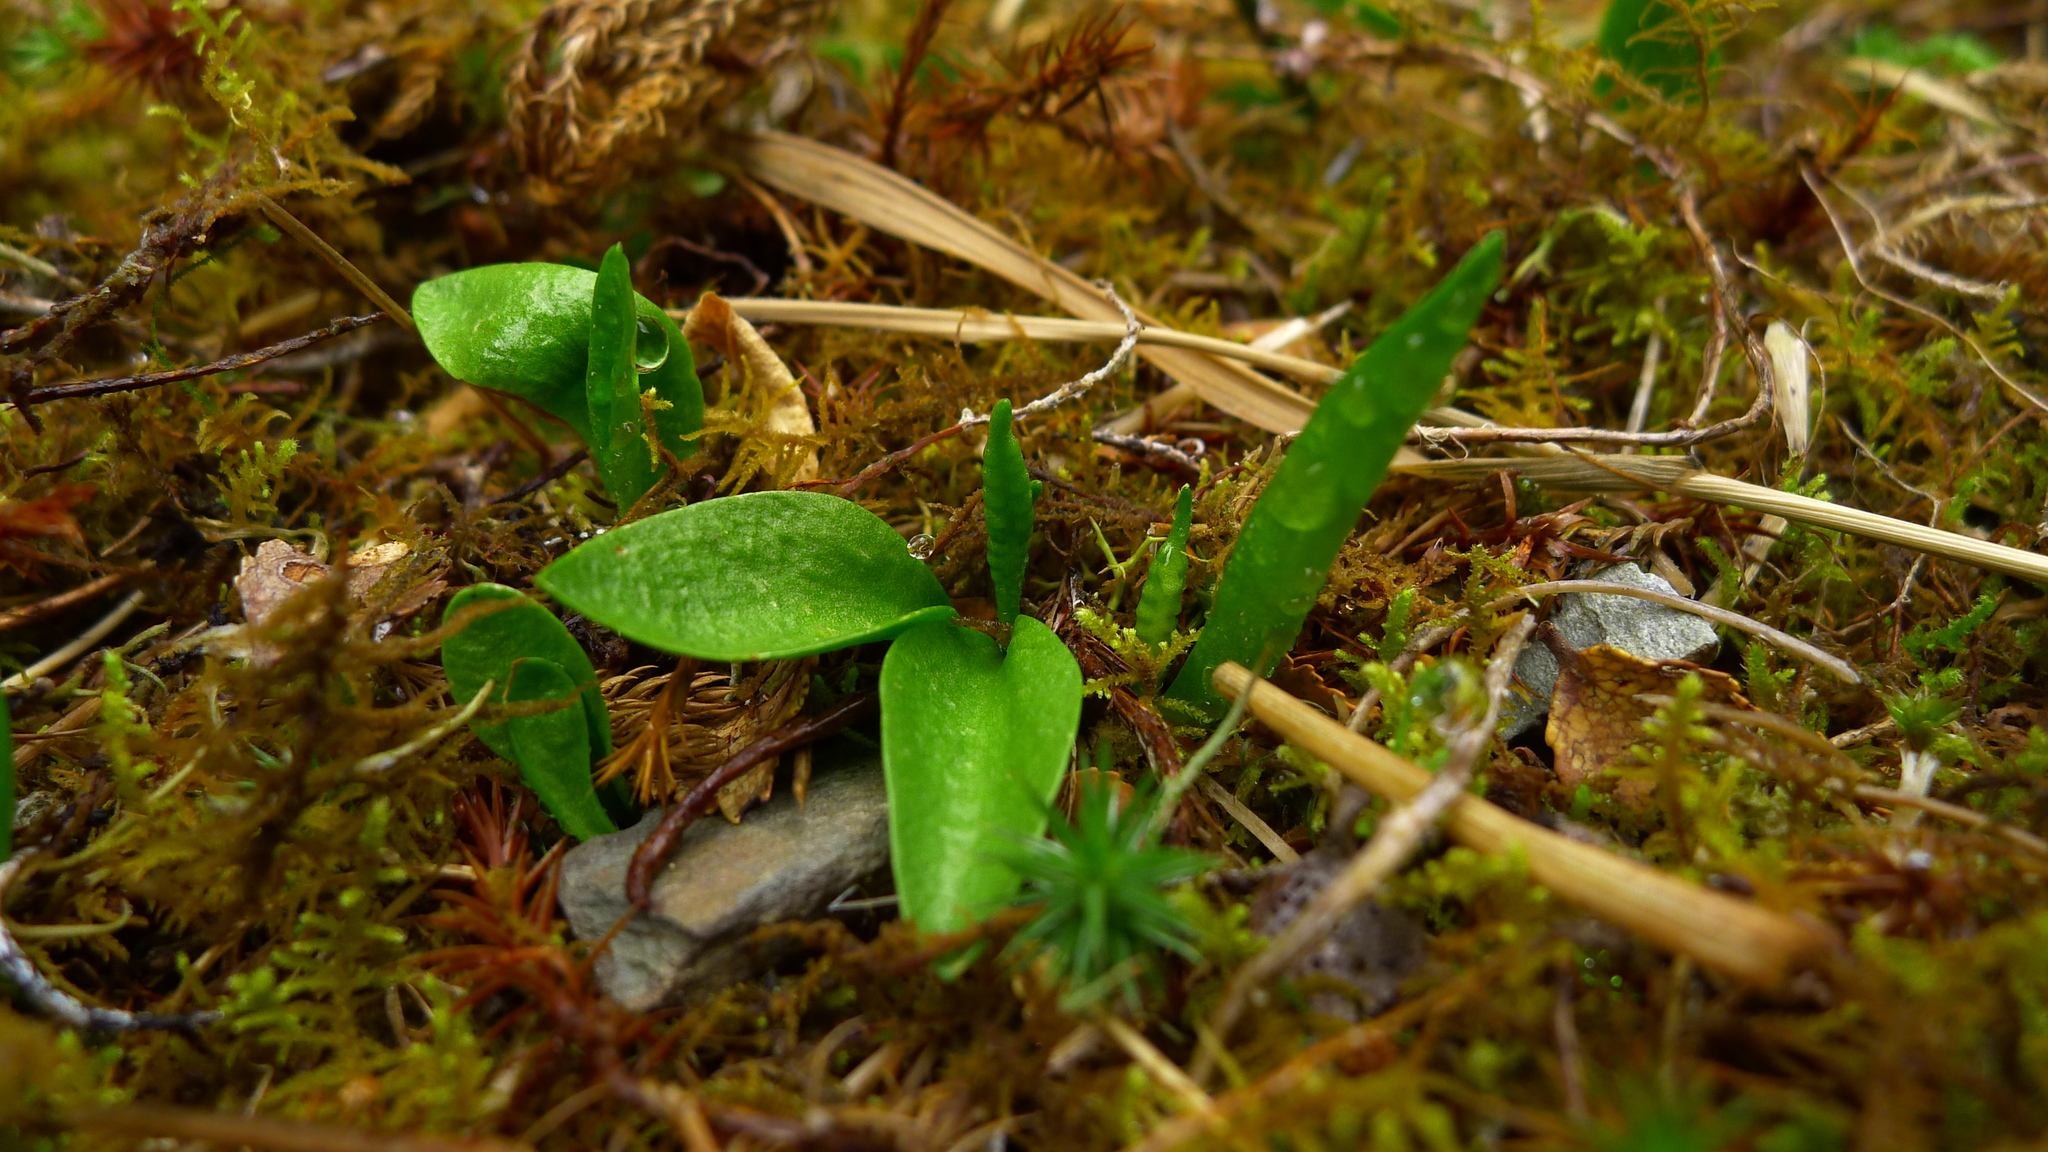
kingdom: Plantae
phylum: Tracheophyta
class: Polypodiopsida
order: Ophioglossales
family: Ophioglossaceae
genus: Ophioglossum
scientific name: Ophioglossum coriaceum
